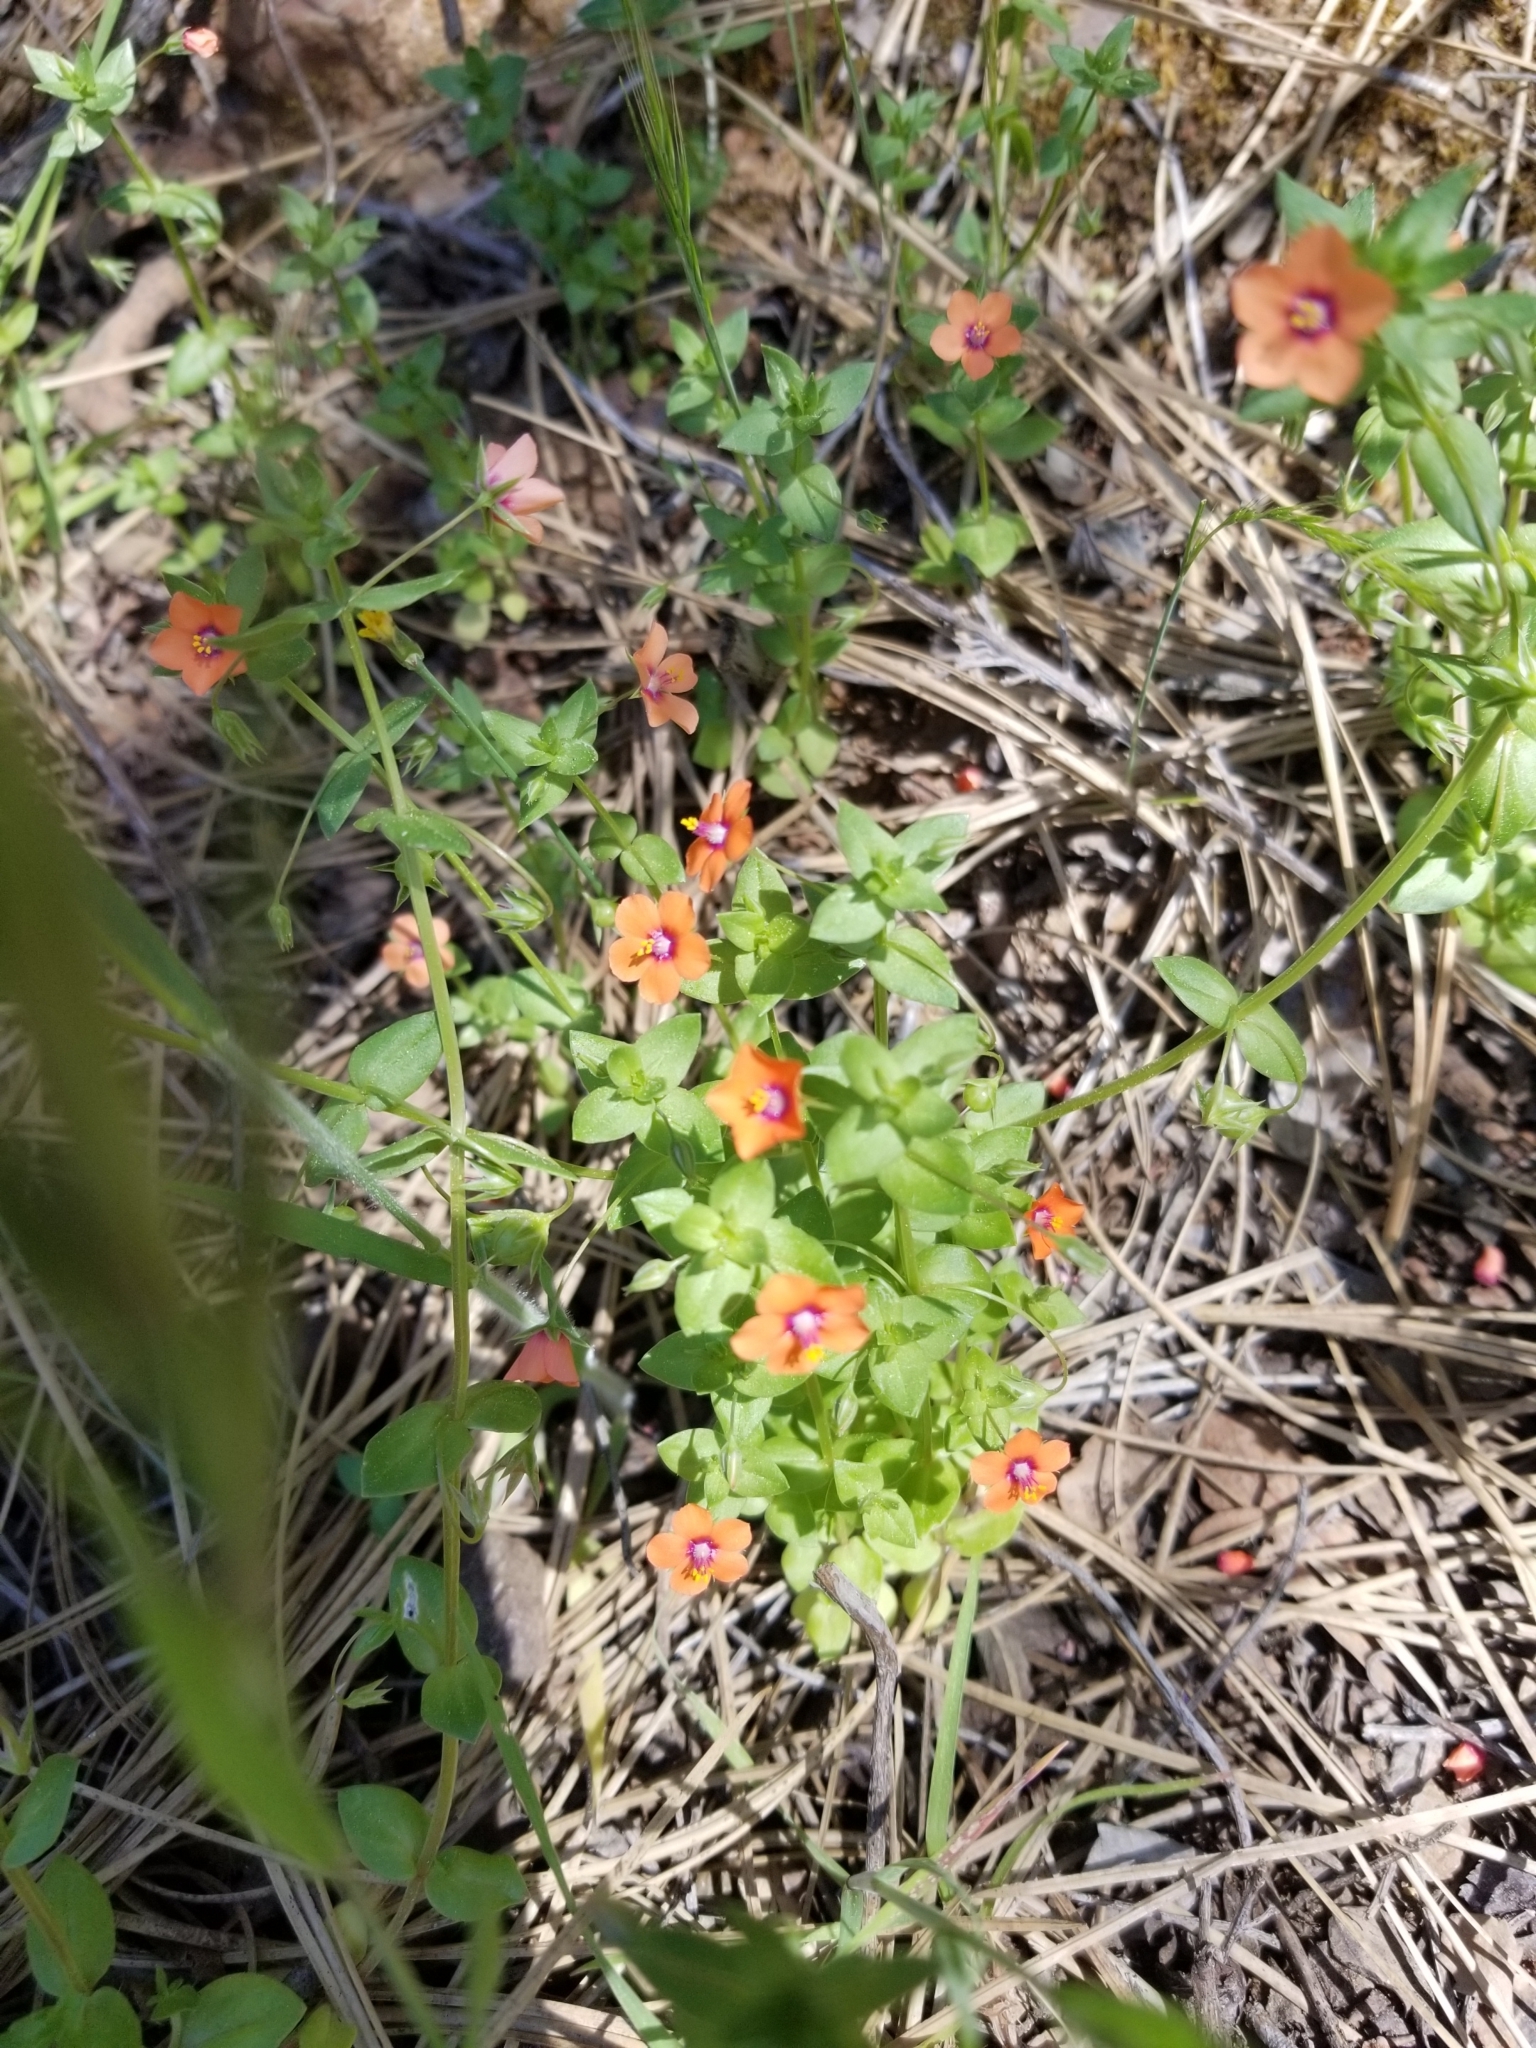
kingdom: Plantae
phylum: Tracheophyta
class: Magnoliopsida
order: Ericales
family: Primulaceae
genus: Lysimachia
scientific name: Lysimachia arvensis
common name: Scarlet pimpernel
